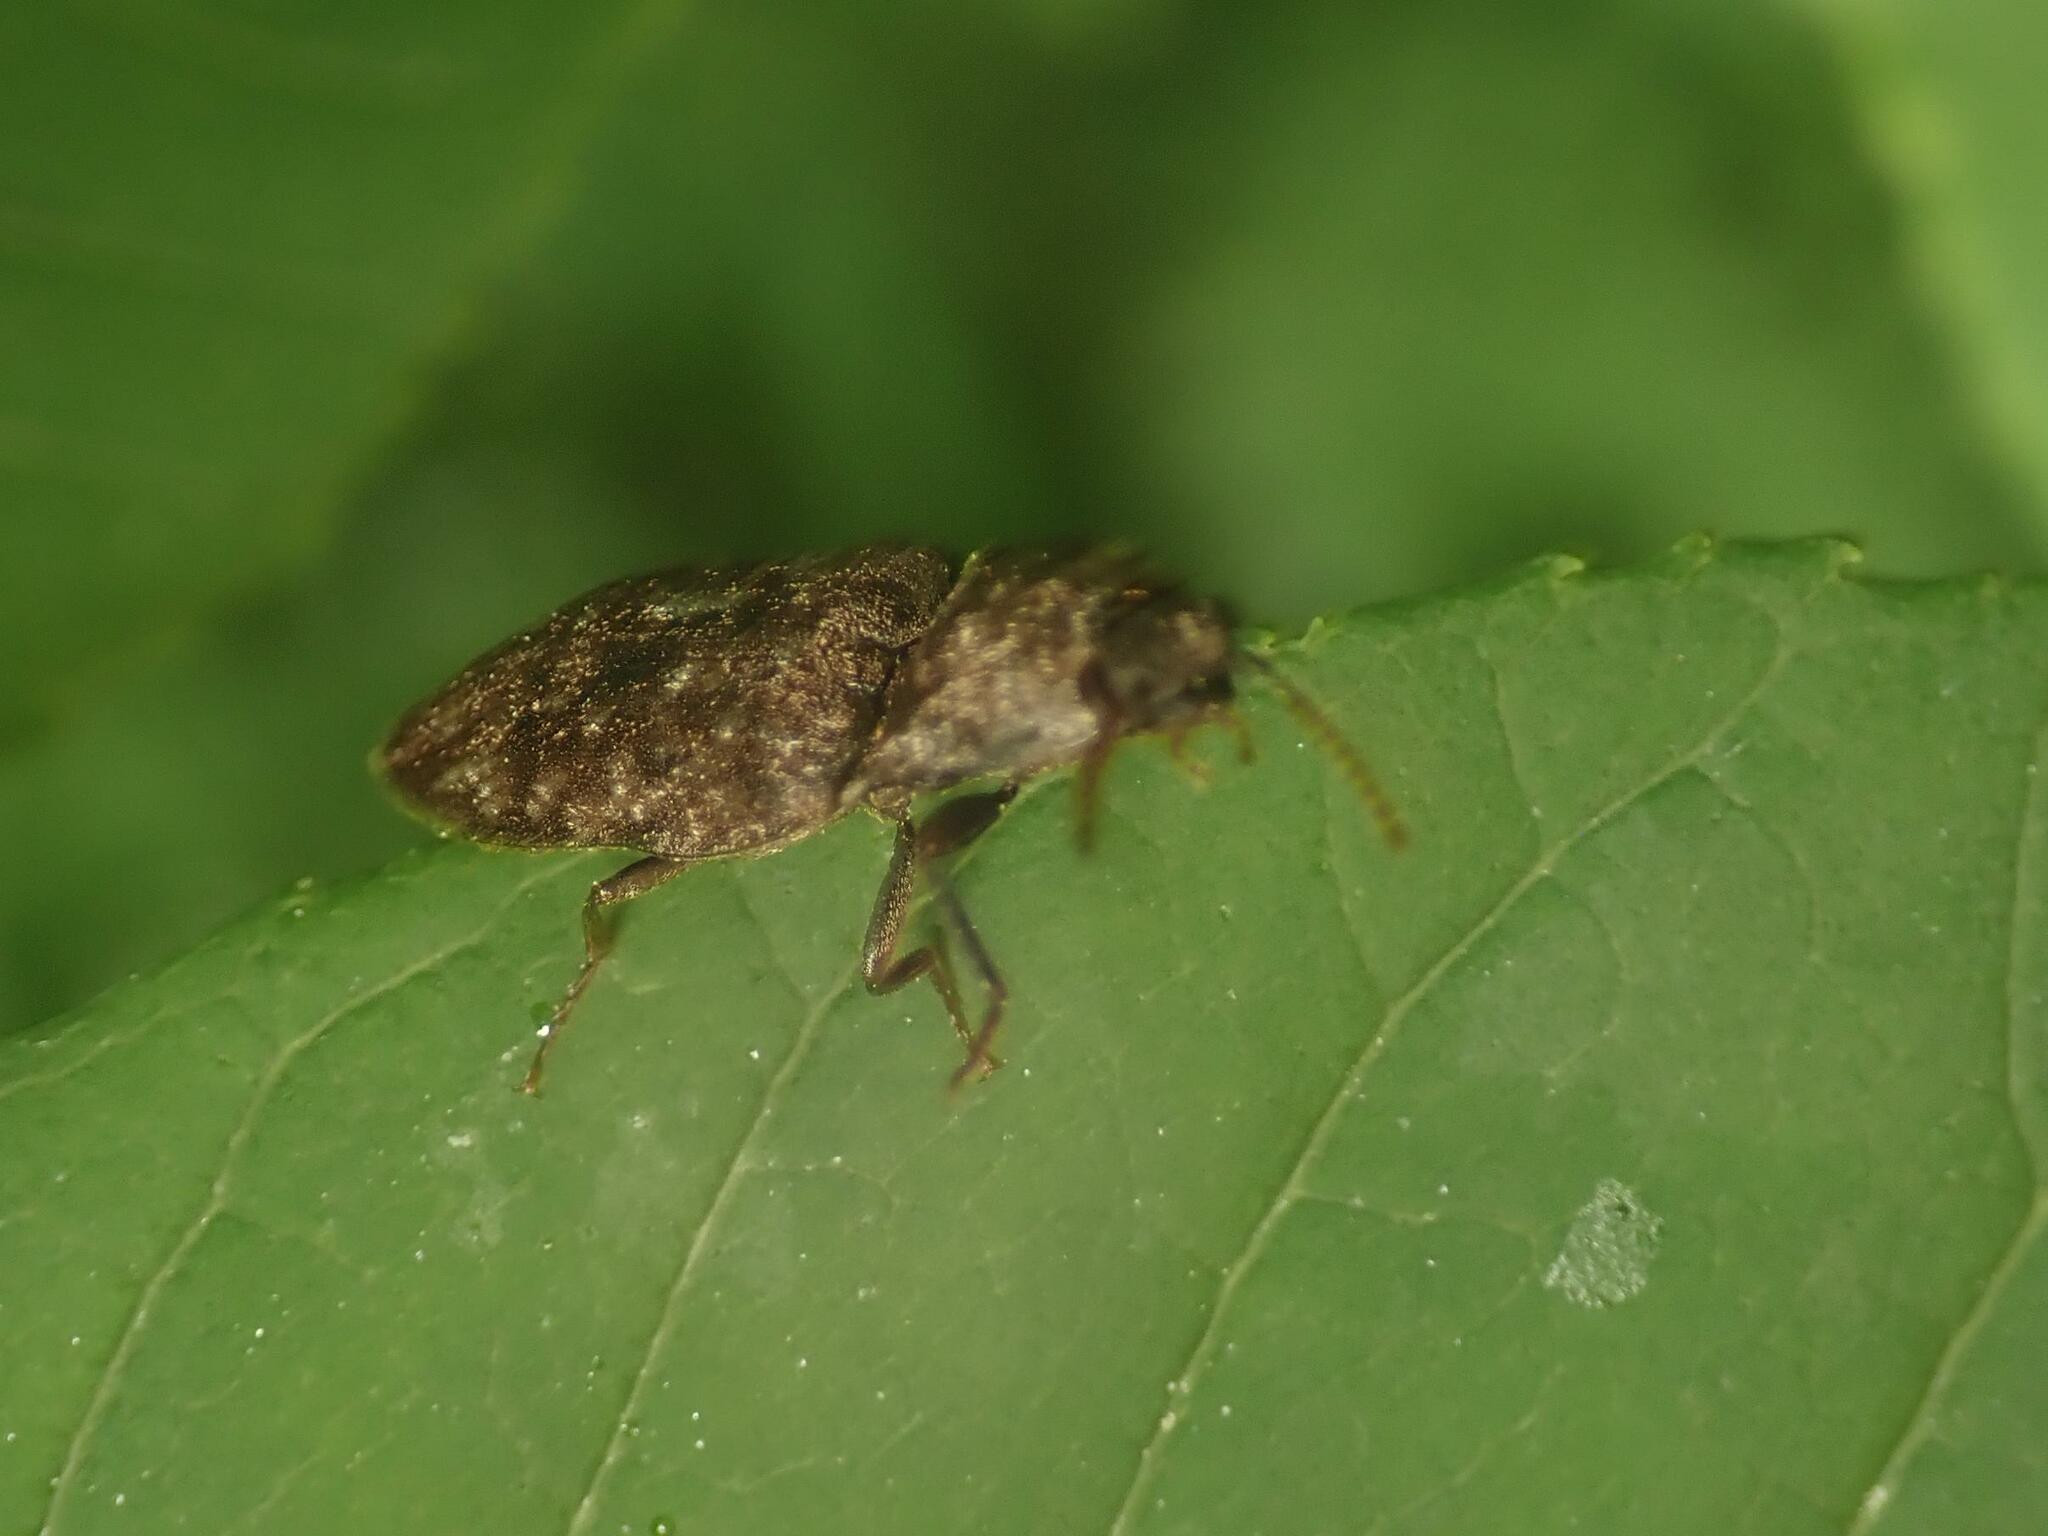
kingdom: Animalia
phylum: Arthropoda
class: Insecta
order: Coleoptera
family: Elateridae
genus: Agrypnus
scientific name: Agrypnus murinus
